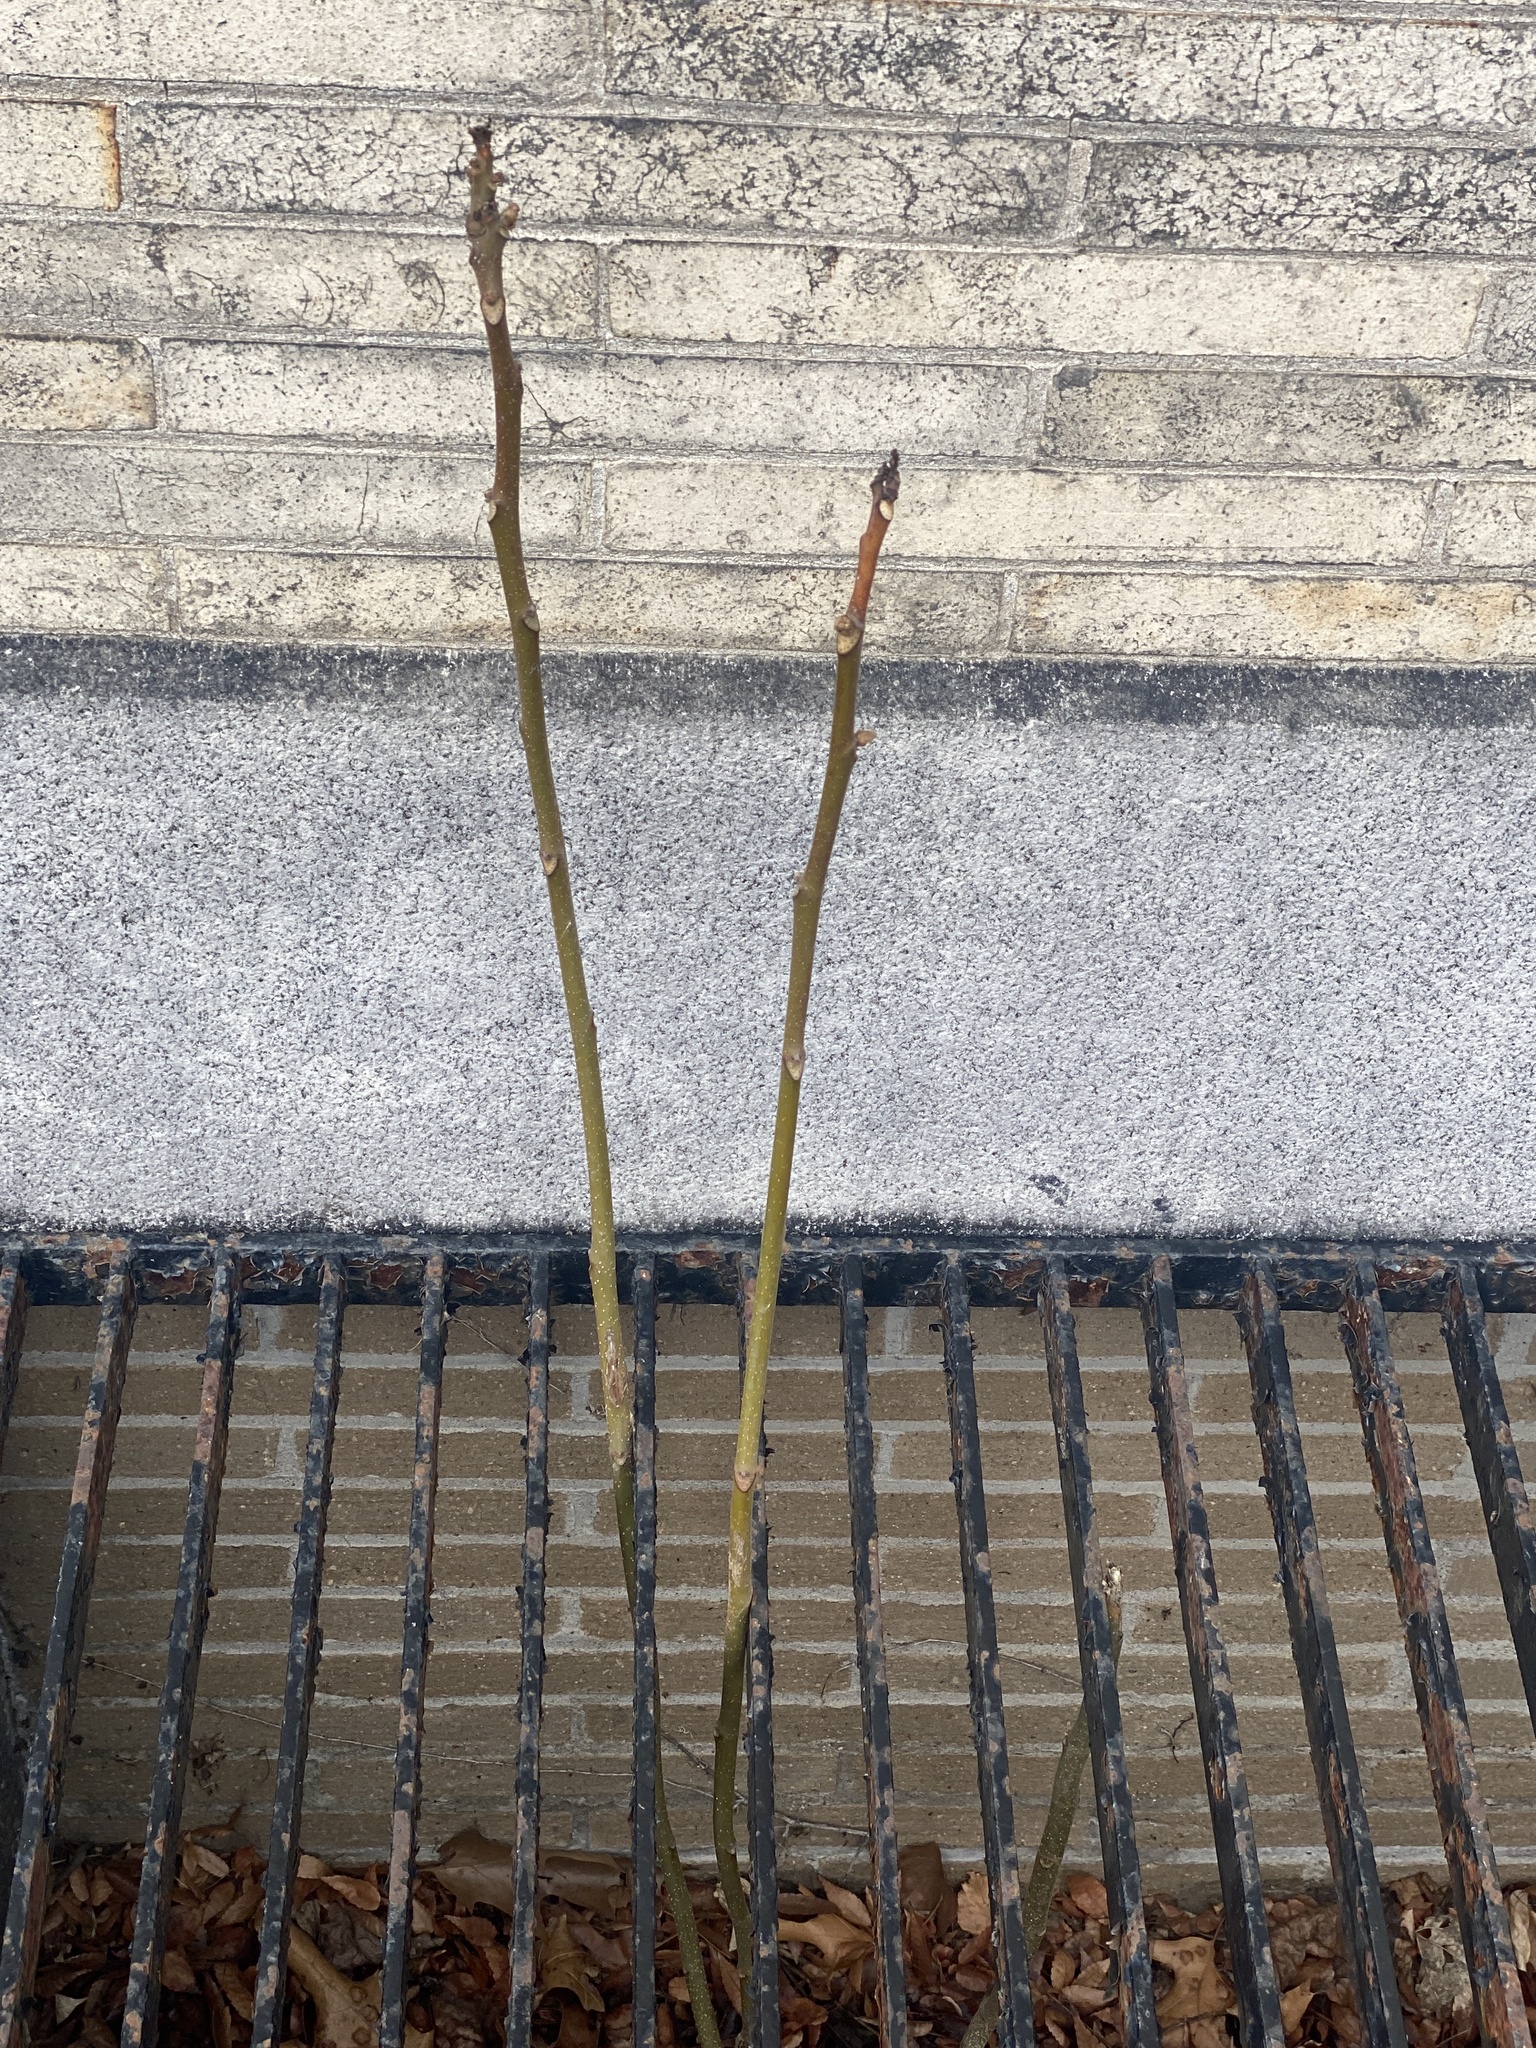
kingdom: Plantae
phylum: Tracheophyta
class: Magnoliopsida
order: Sapindales
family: Simaroubaceae
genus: Ailanthus
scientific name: Ailanthus altissima
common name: Tree-of-heaven
